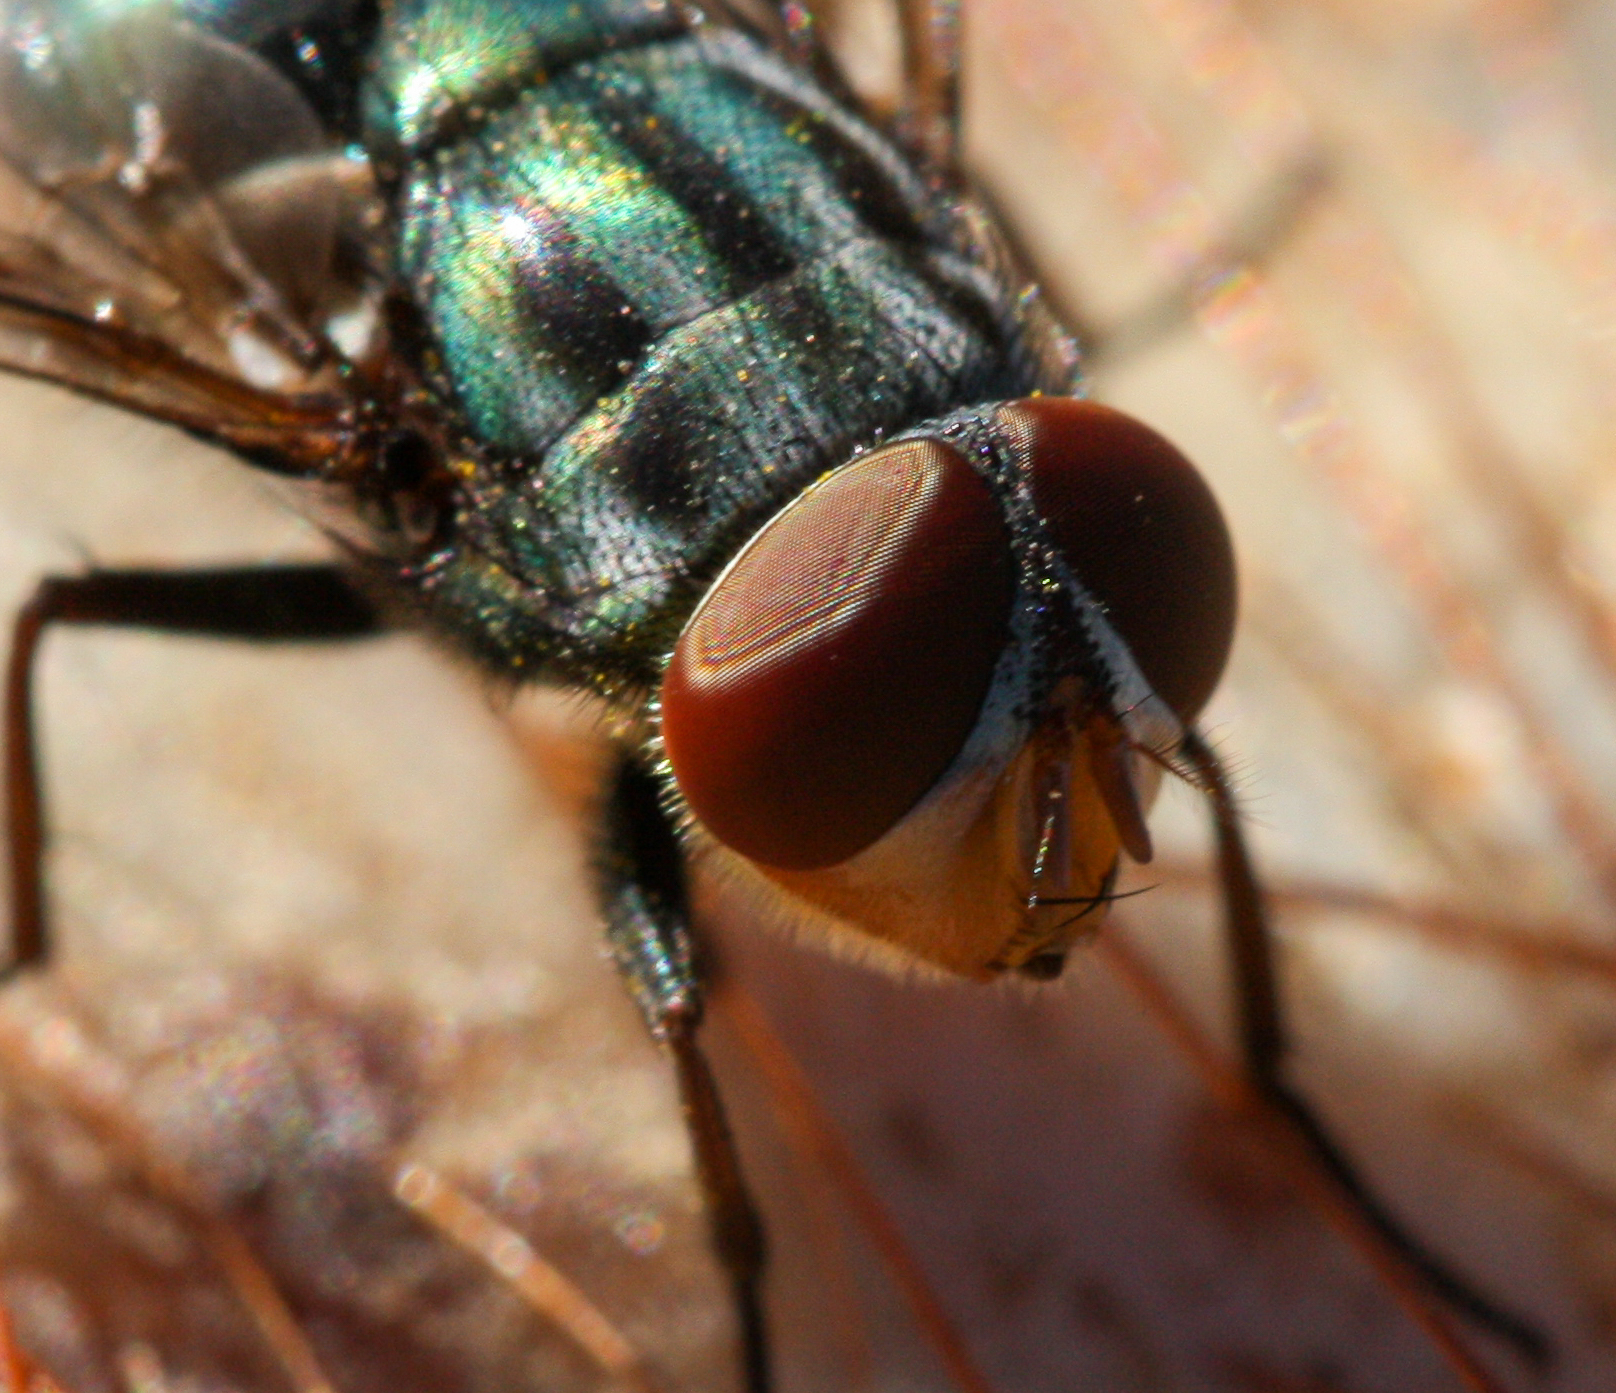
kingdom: Animalia
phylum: Arthropoda
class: Insecta
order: Diptera
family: Calliphoridae
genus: Cochliomyia
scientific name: Cochliomyia macellaria
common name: Secondary screwworm
